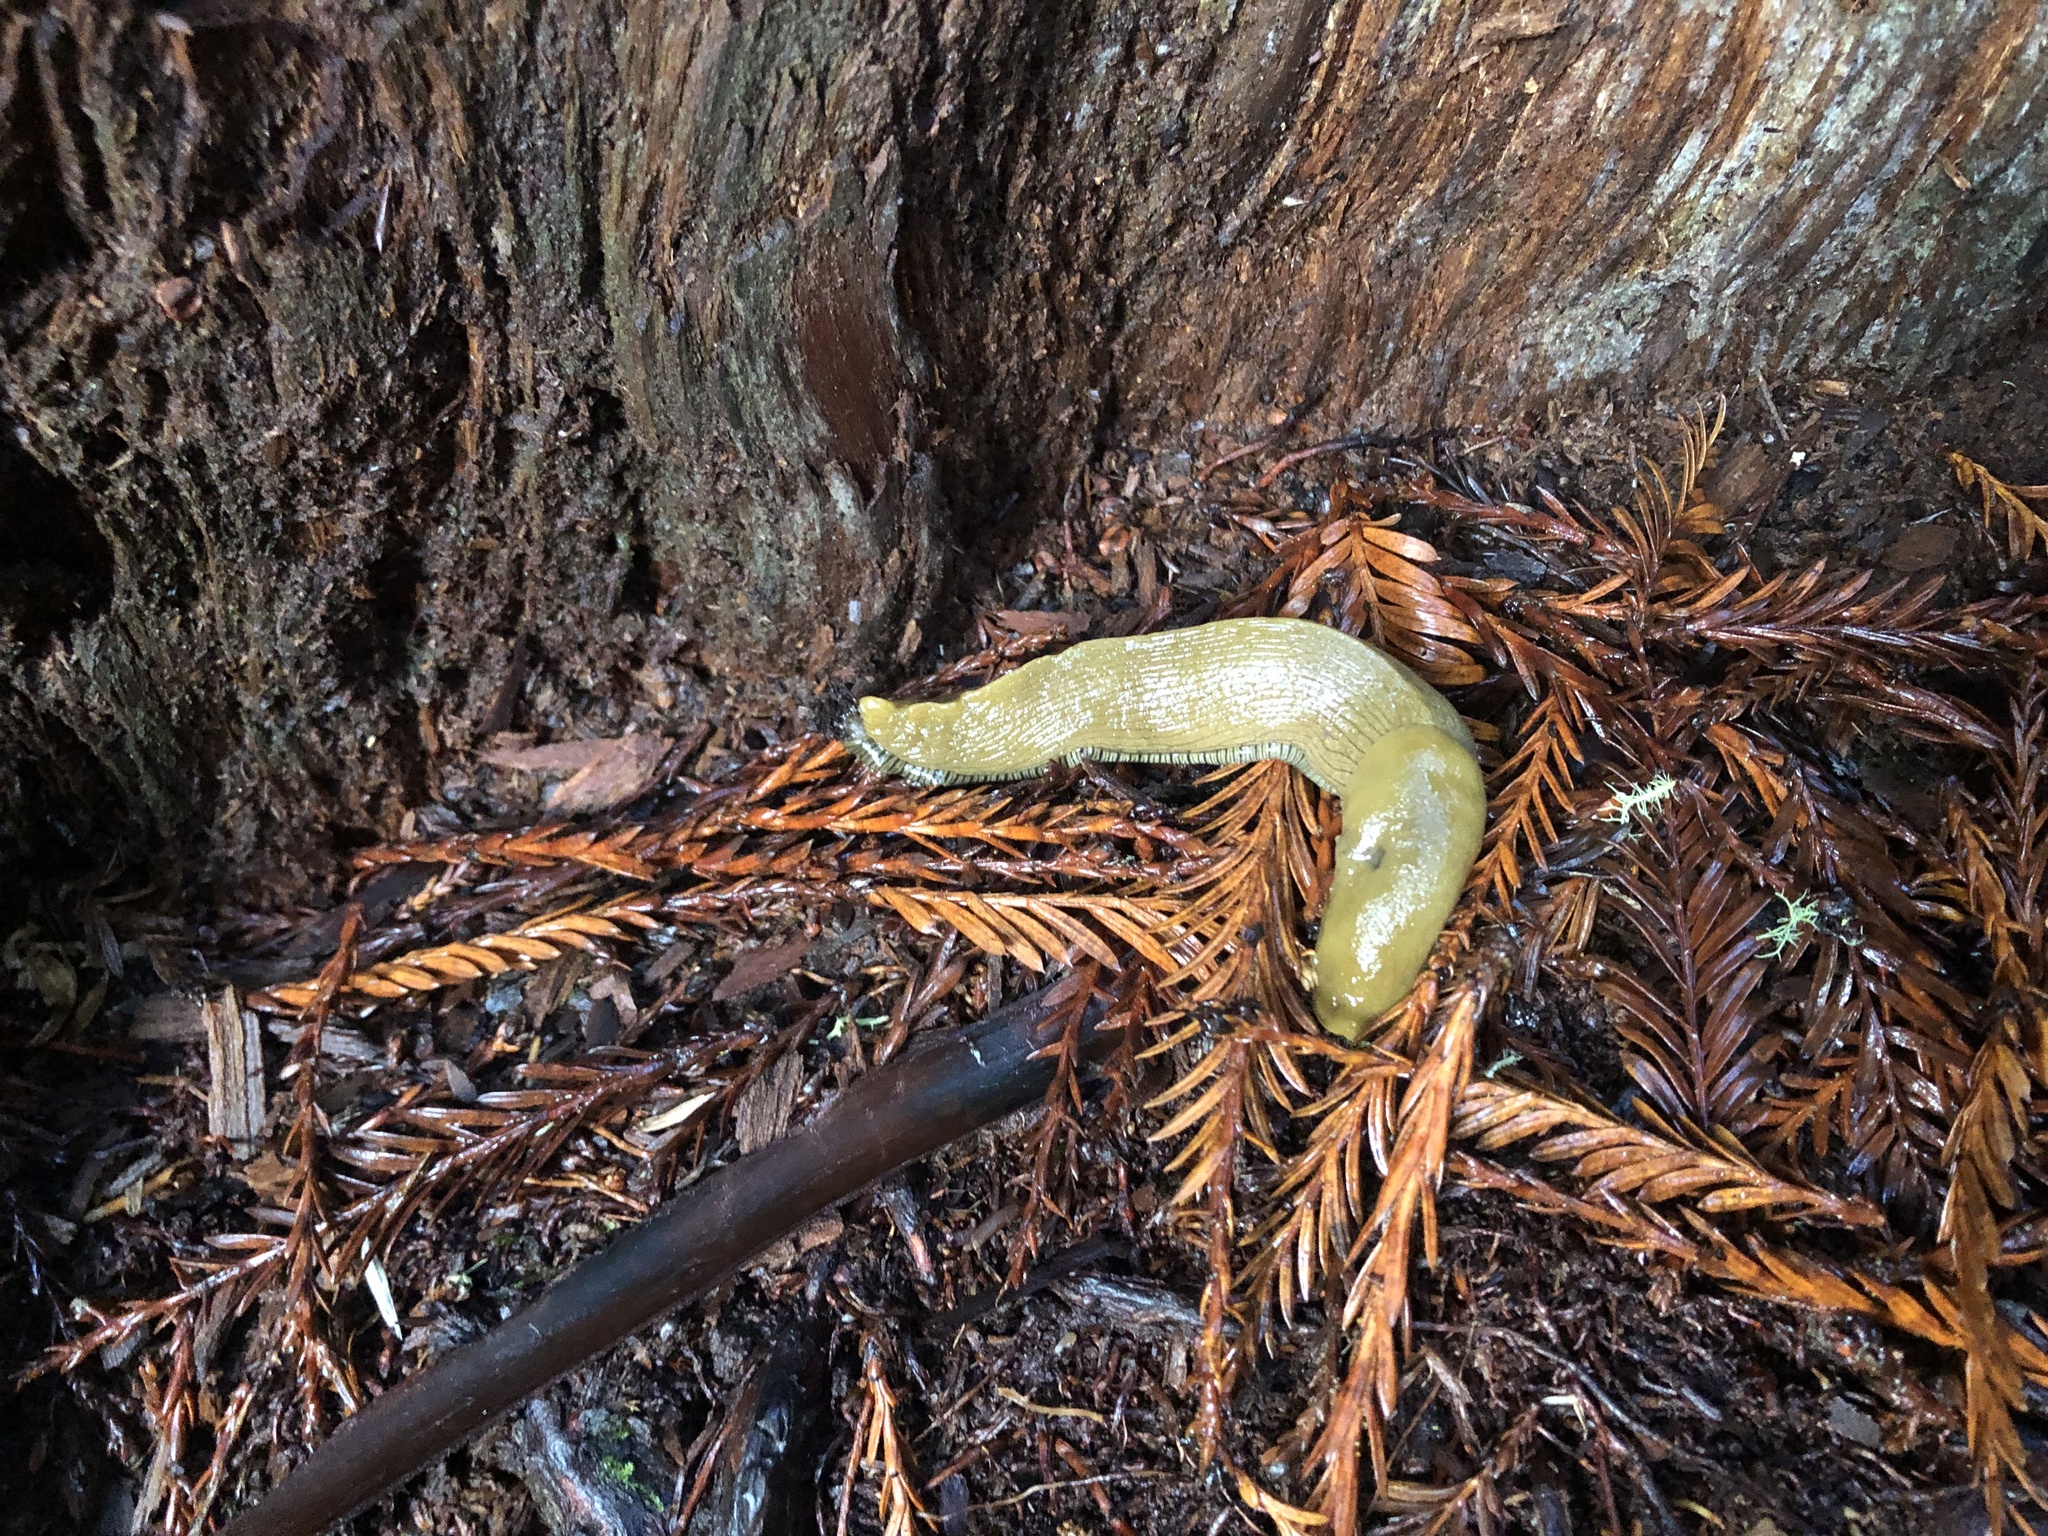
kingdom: Animalia
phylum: Mollusca
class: Gastropoda
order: Stylommatophora
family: Ariolimacidae
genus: Ariolimax
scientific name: Ariolimax buttoni
